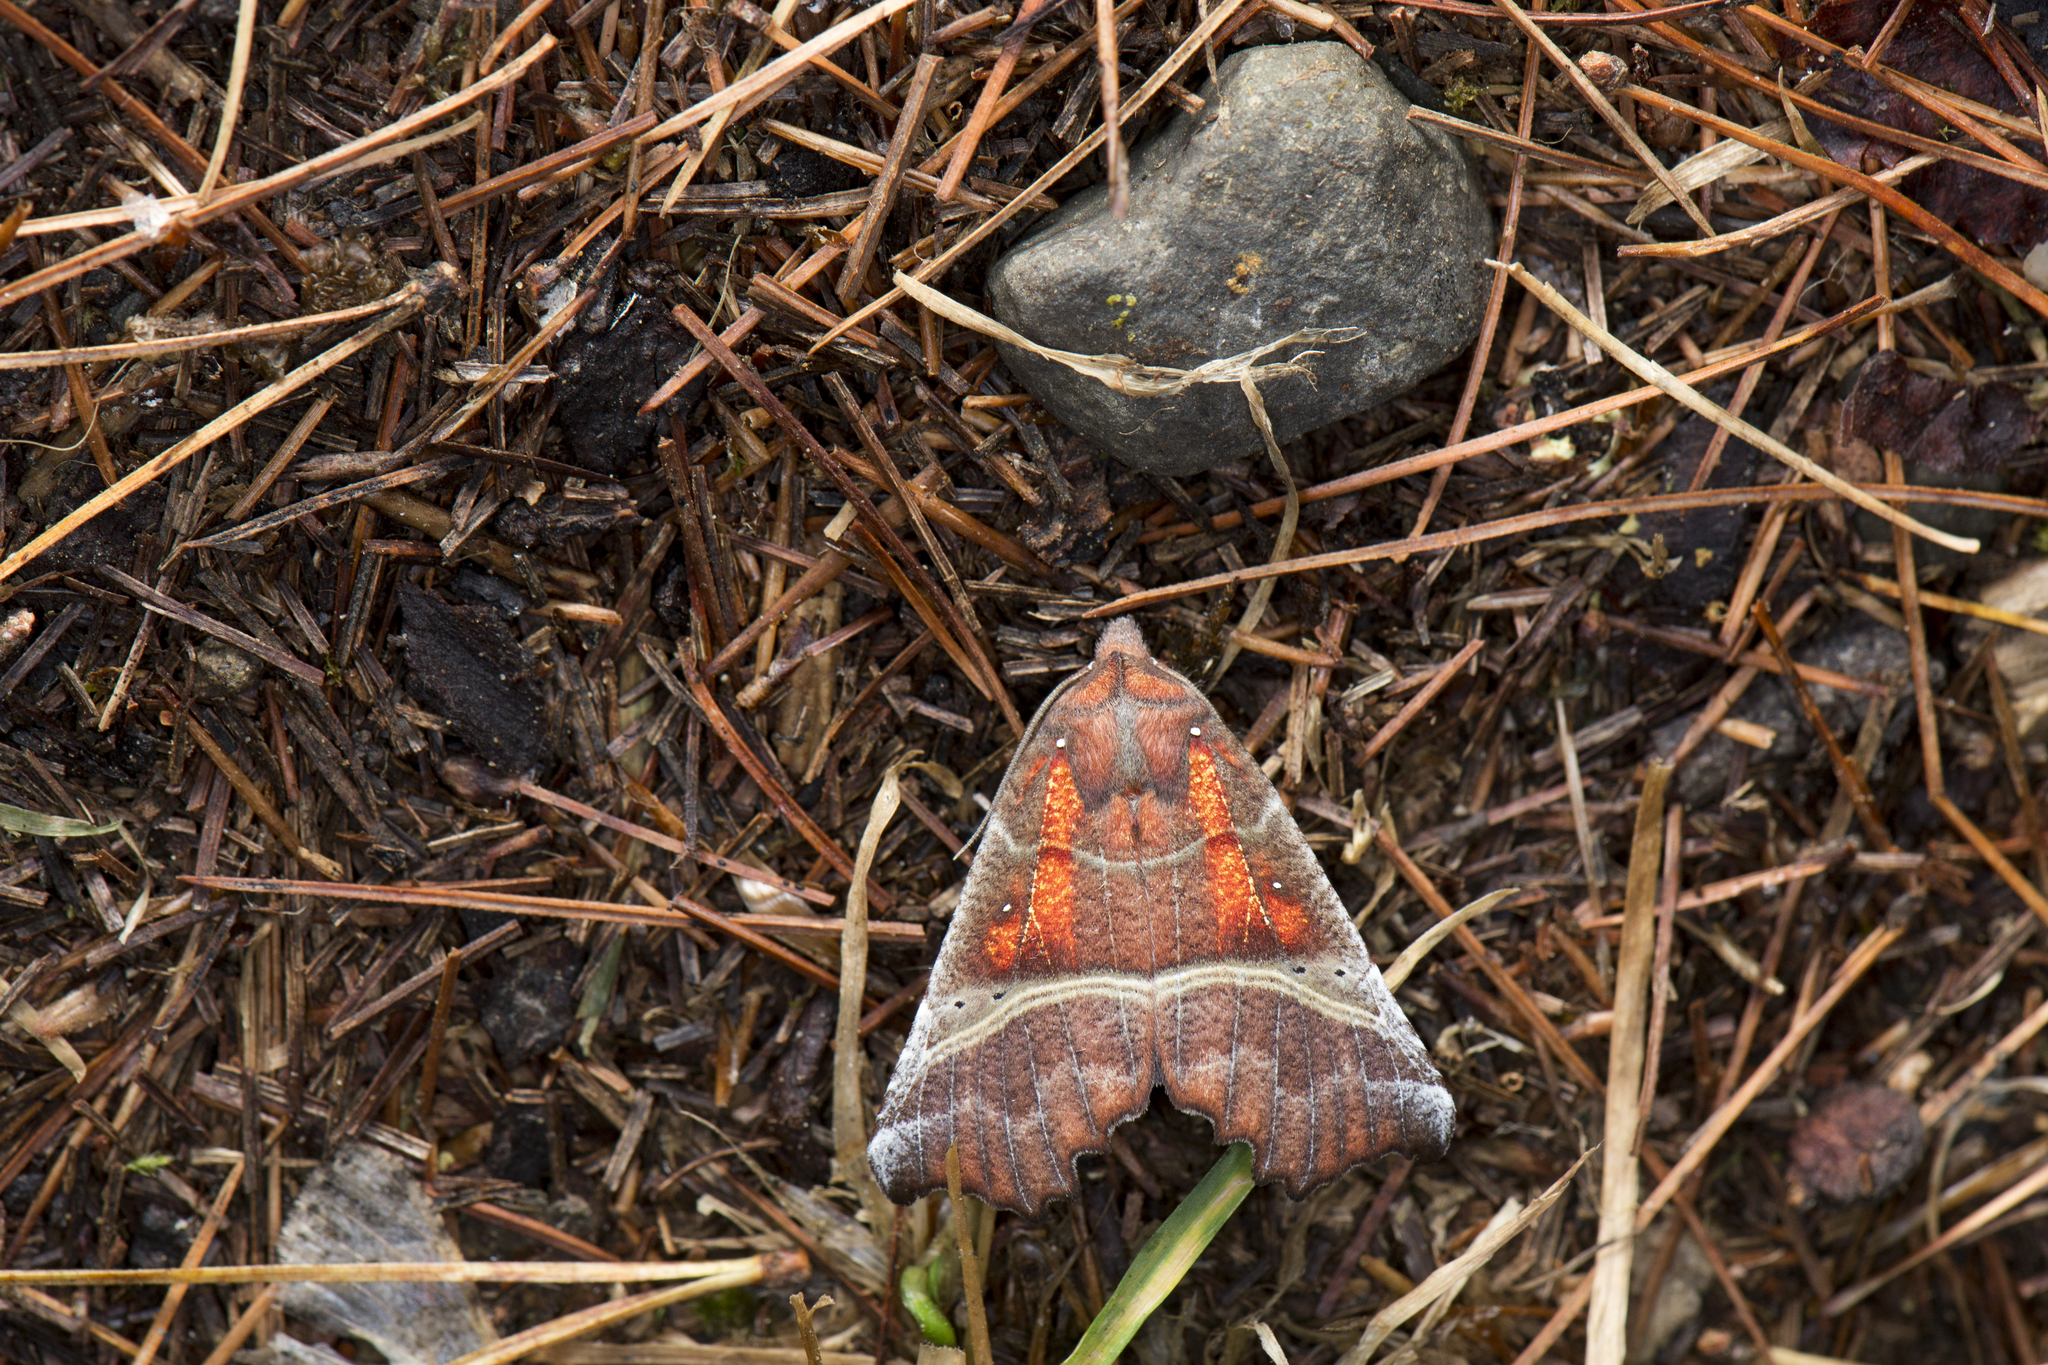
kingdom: Animalia
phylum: Arthropoda
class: Insecta
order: Lepidoptera
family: Erebidae
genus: Scoliopteryx
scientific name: Scoliopteryx libatrix
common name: Herald
